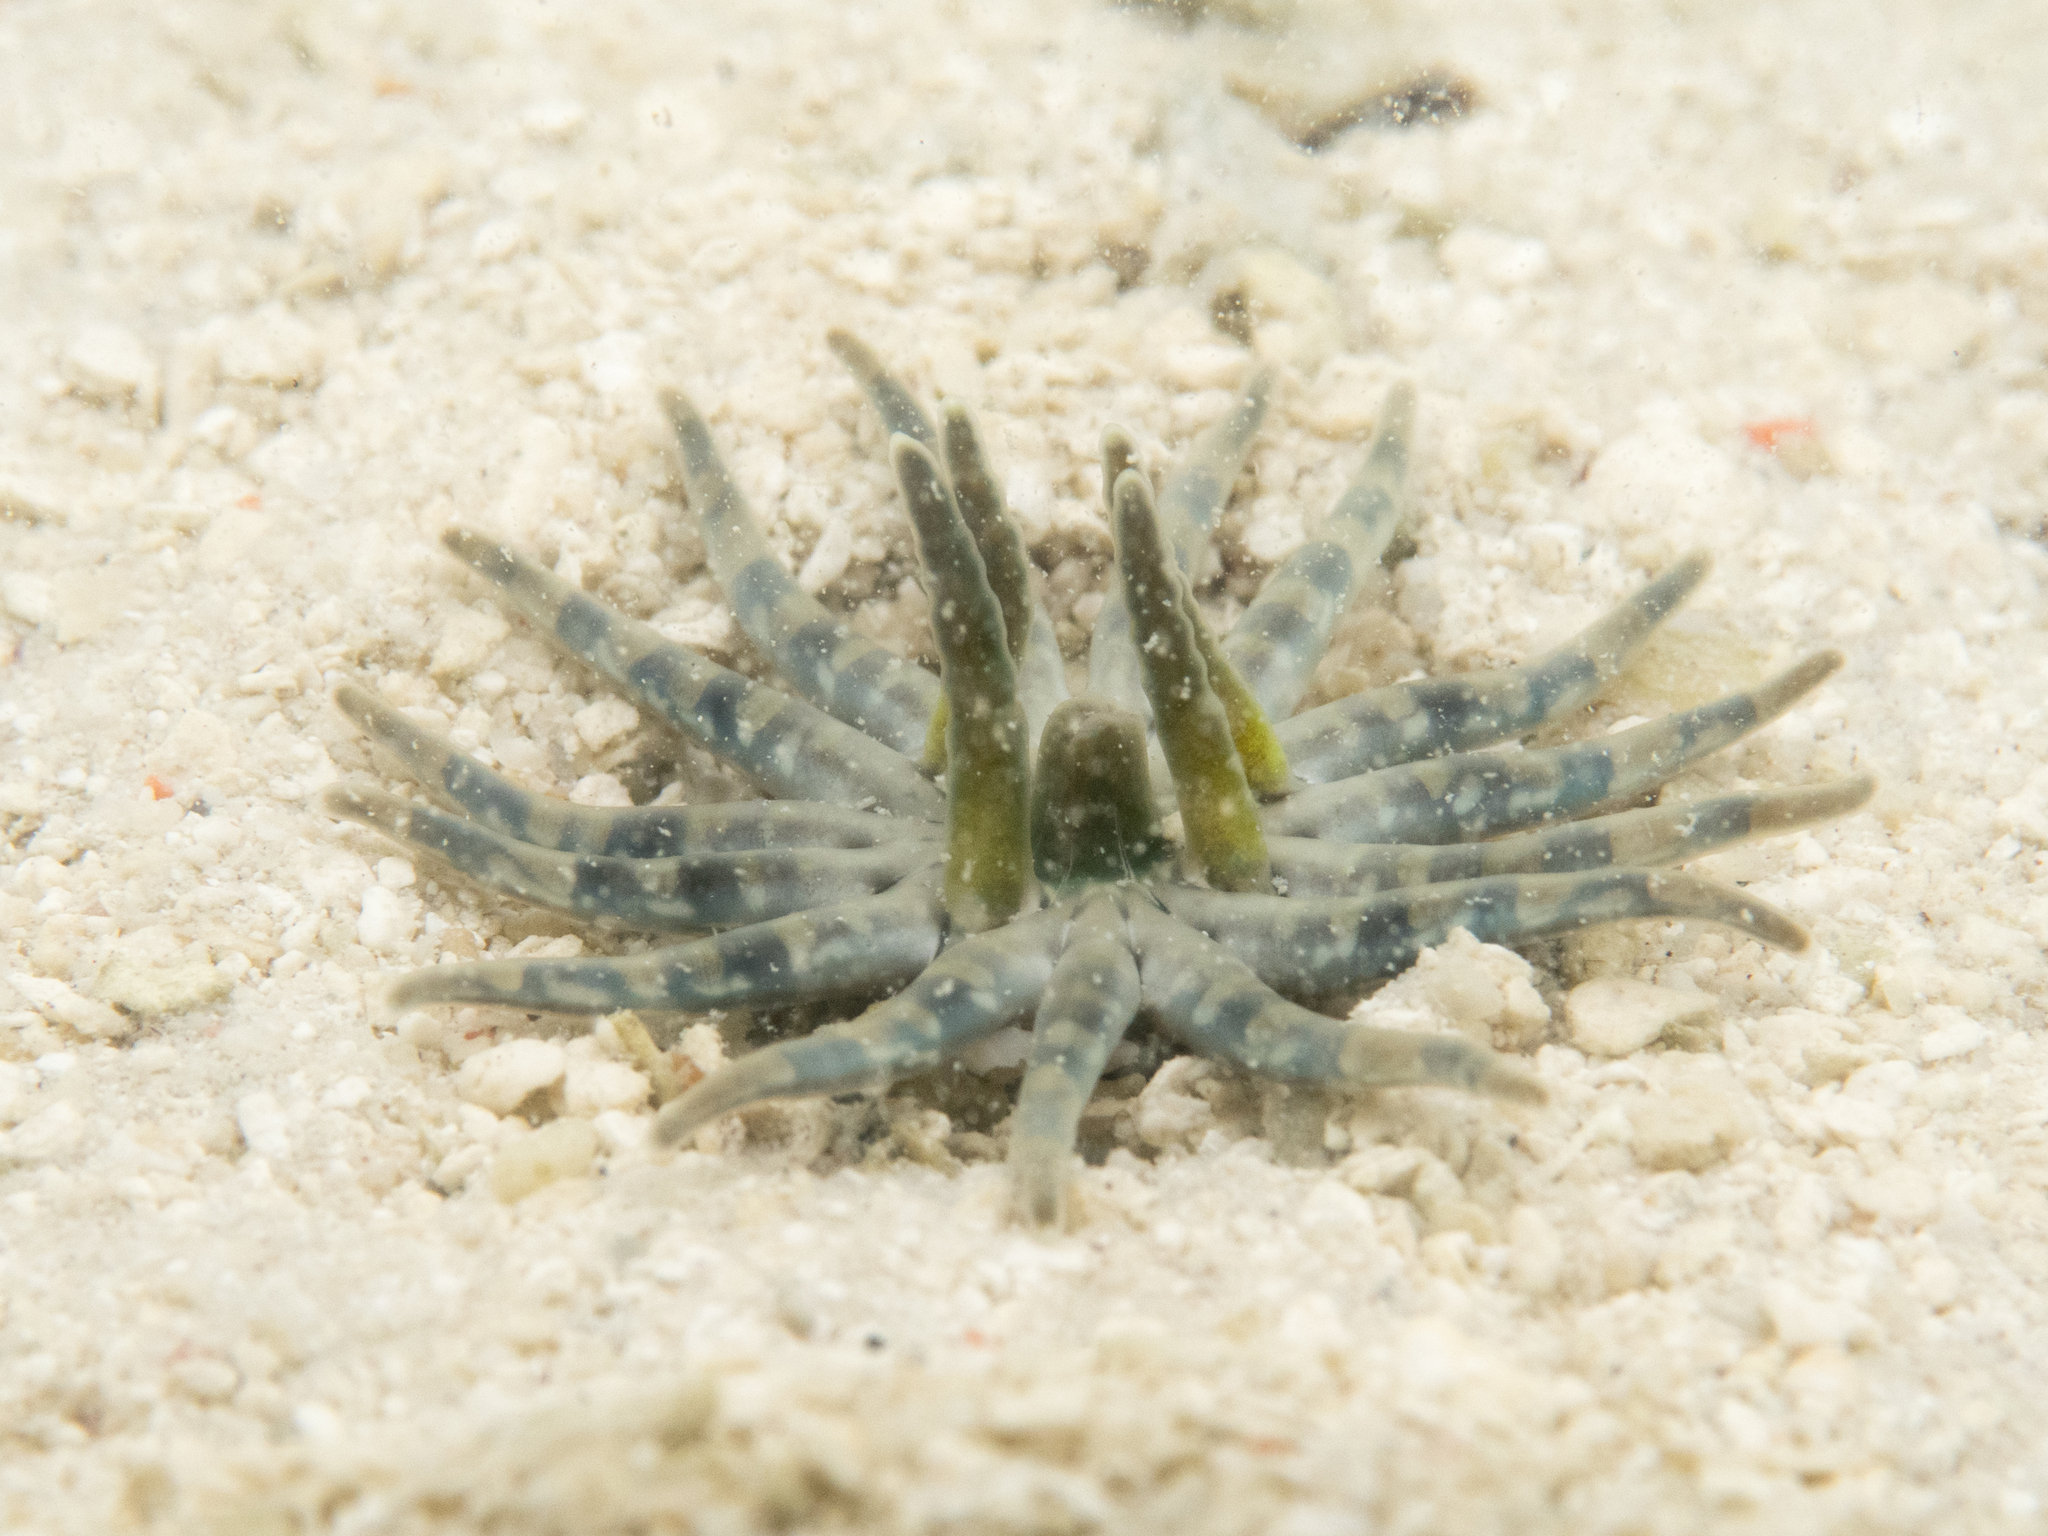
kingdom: Animalia
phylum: Cnidaria
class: Anthozoa
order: Actiniaria
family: Edwardsiidae
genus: Edwardsianthus
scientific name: Edwardsianthus pudicus
